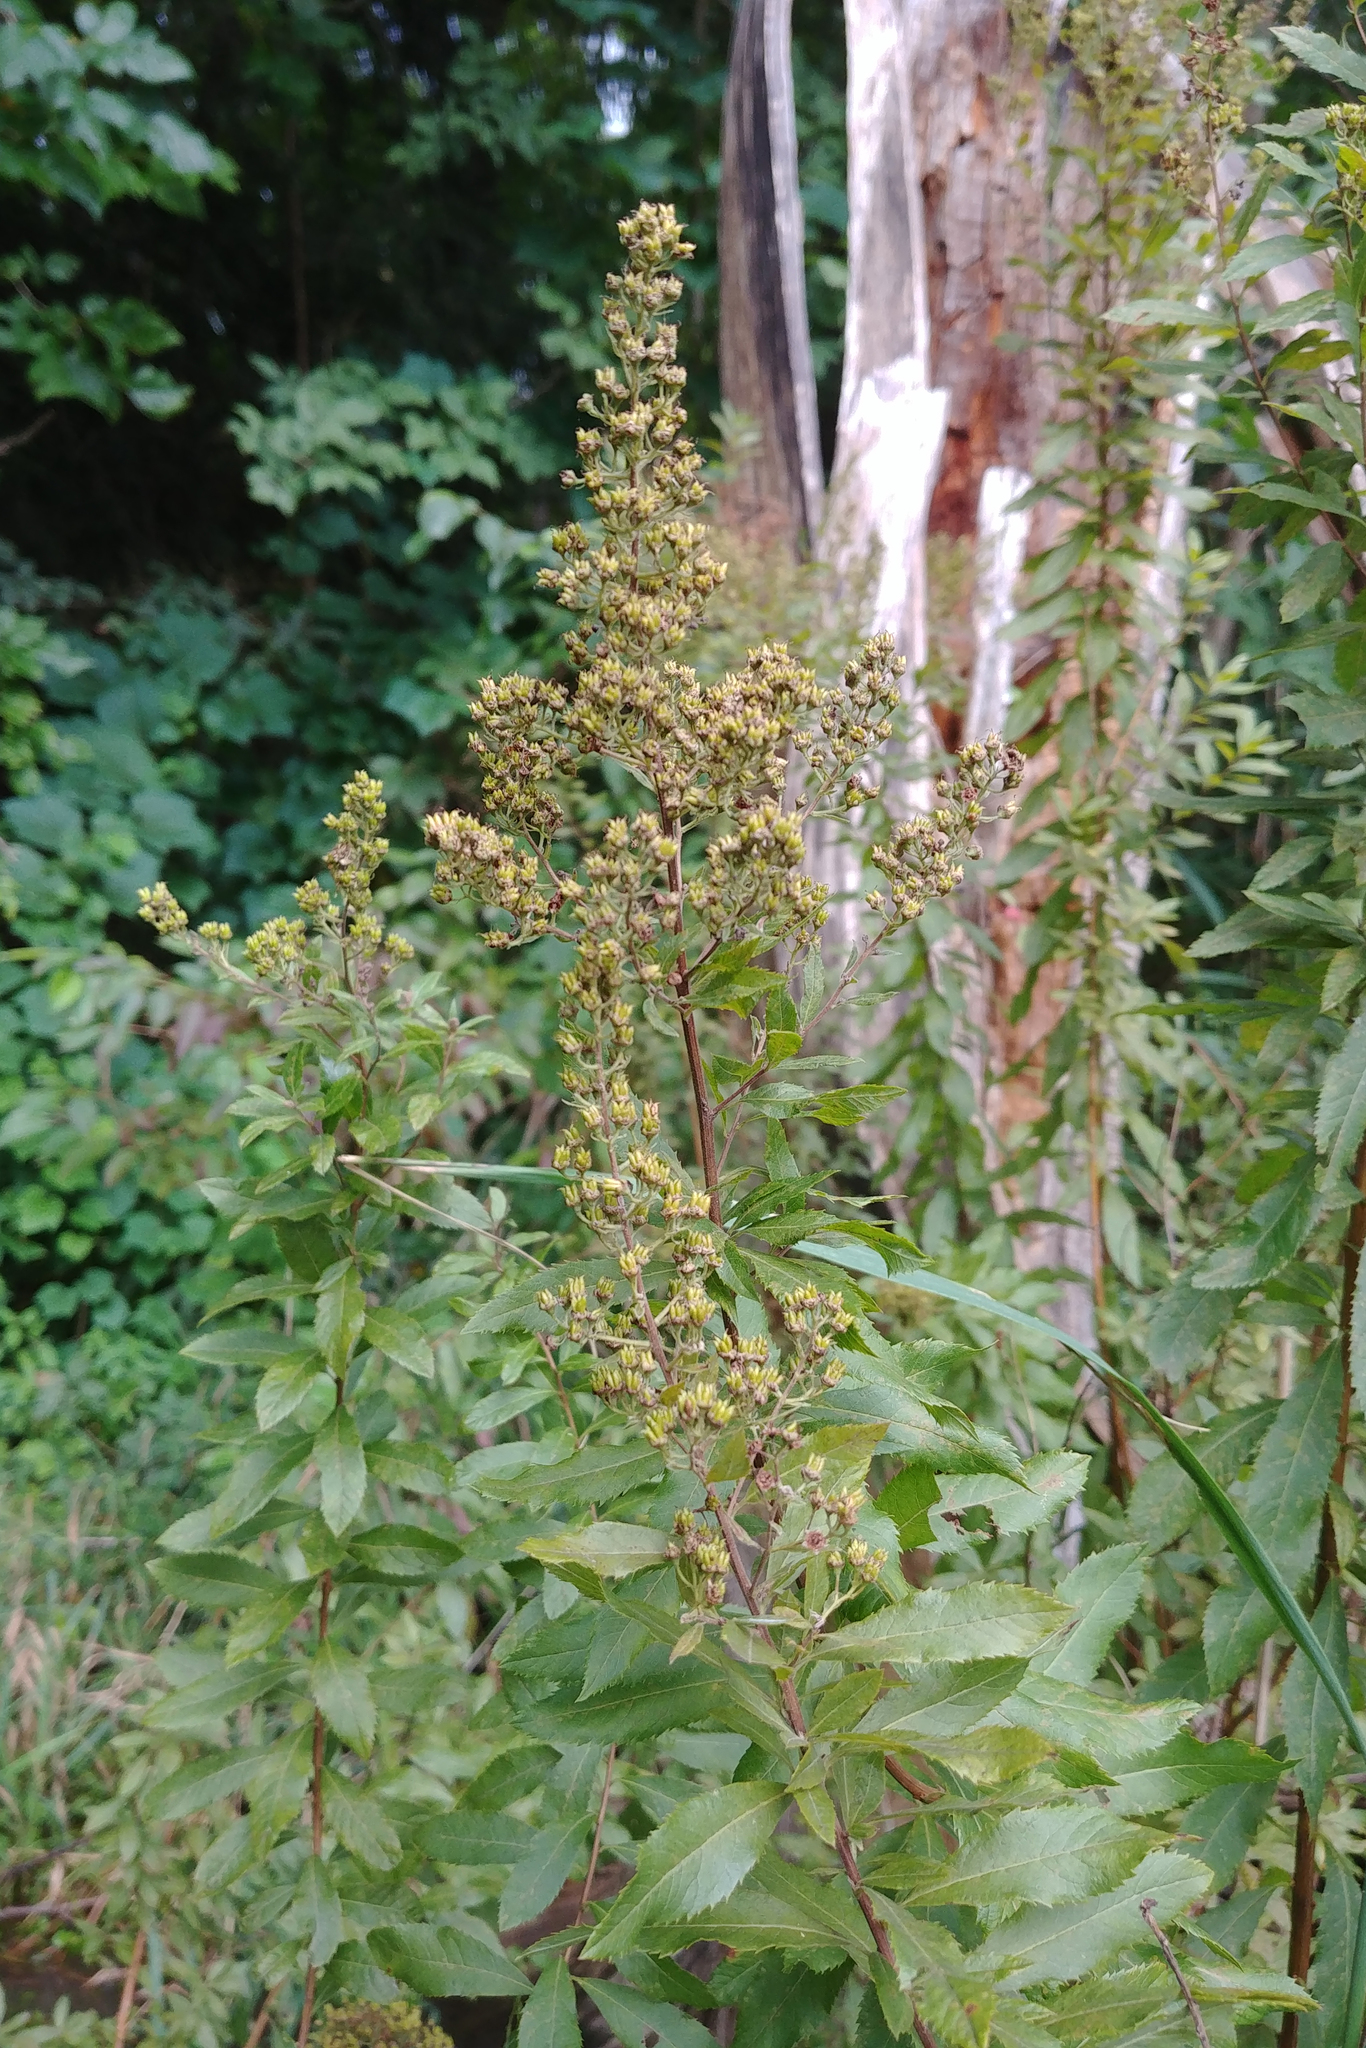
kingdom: Plantae
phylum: Tracheophyta
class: Magnoliopsida
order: Rosales
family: Rosaceae
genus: Spiraea
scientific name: Spiraea alba
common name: Pale bridewort
